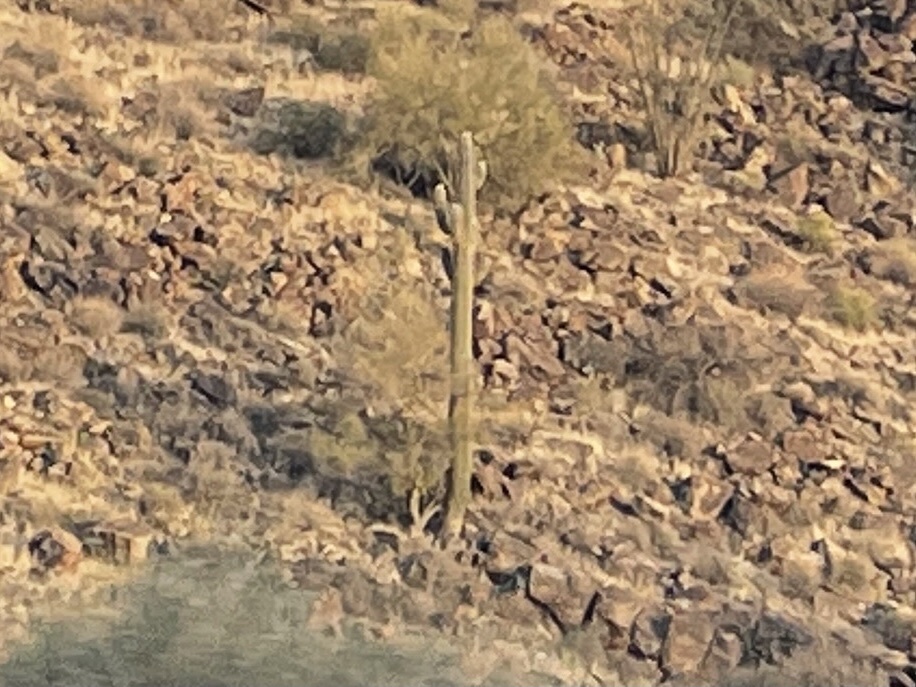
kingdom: Plantae
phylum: Tracheophyta
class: Magnoliopsida
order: Caryophyllales
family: Cactaceae
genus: Carnegiea
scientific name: Carnegiea gigantea
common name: Saguaro
